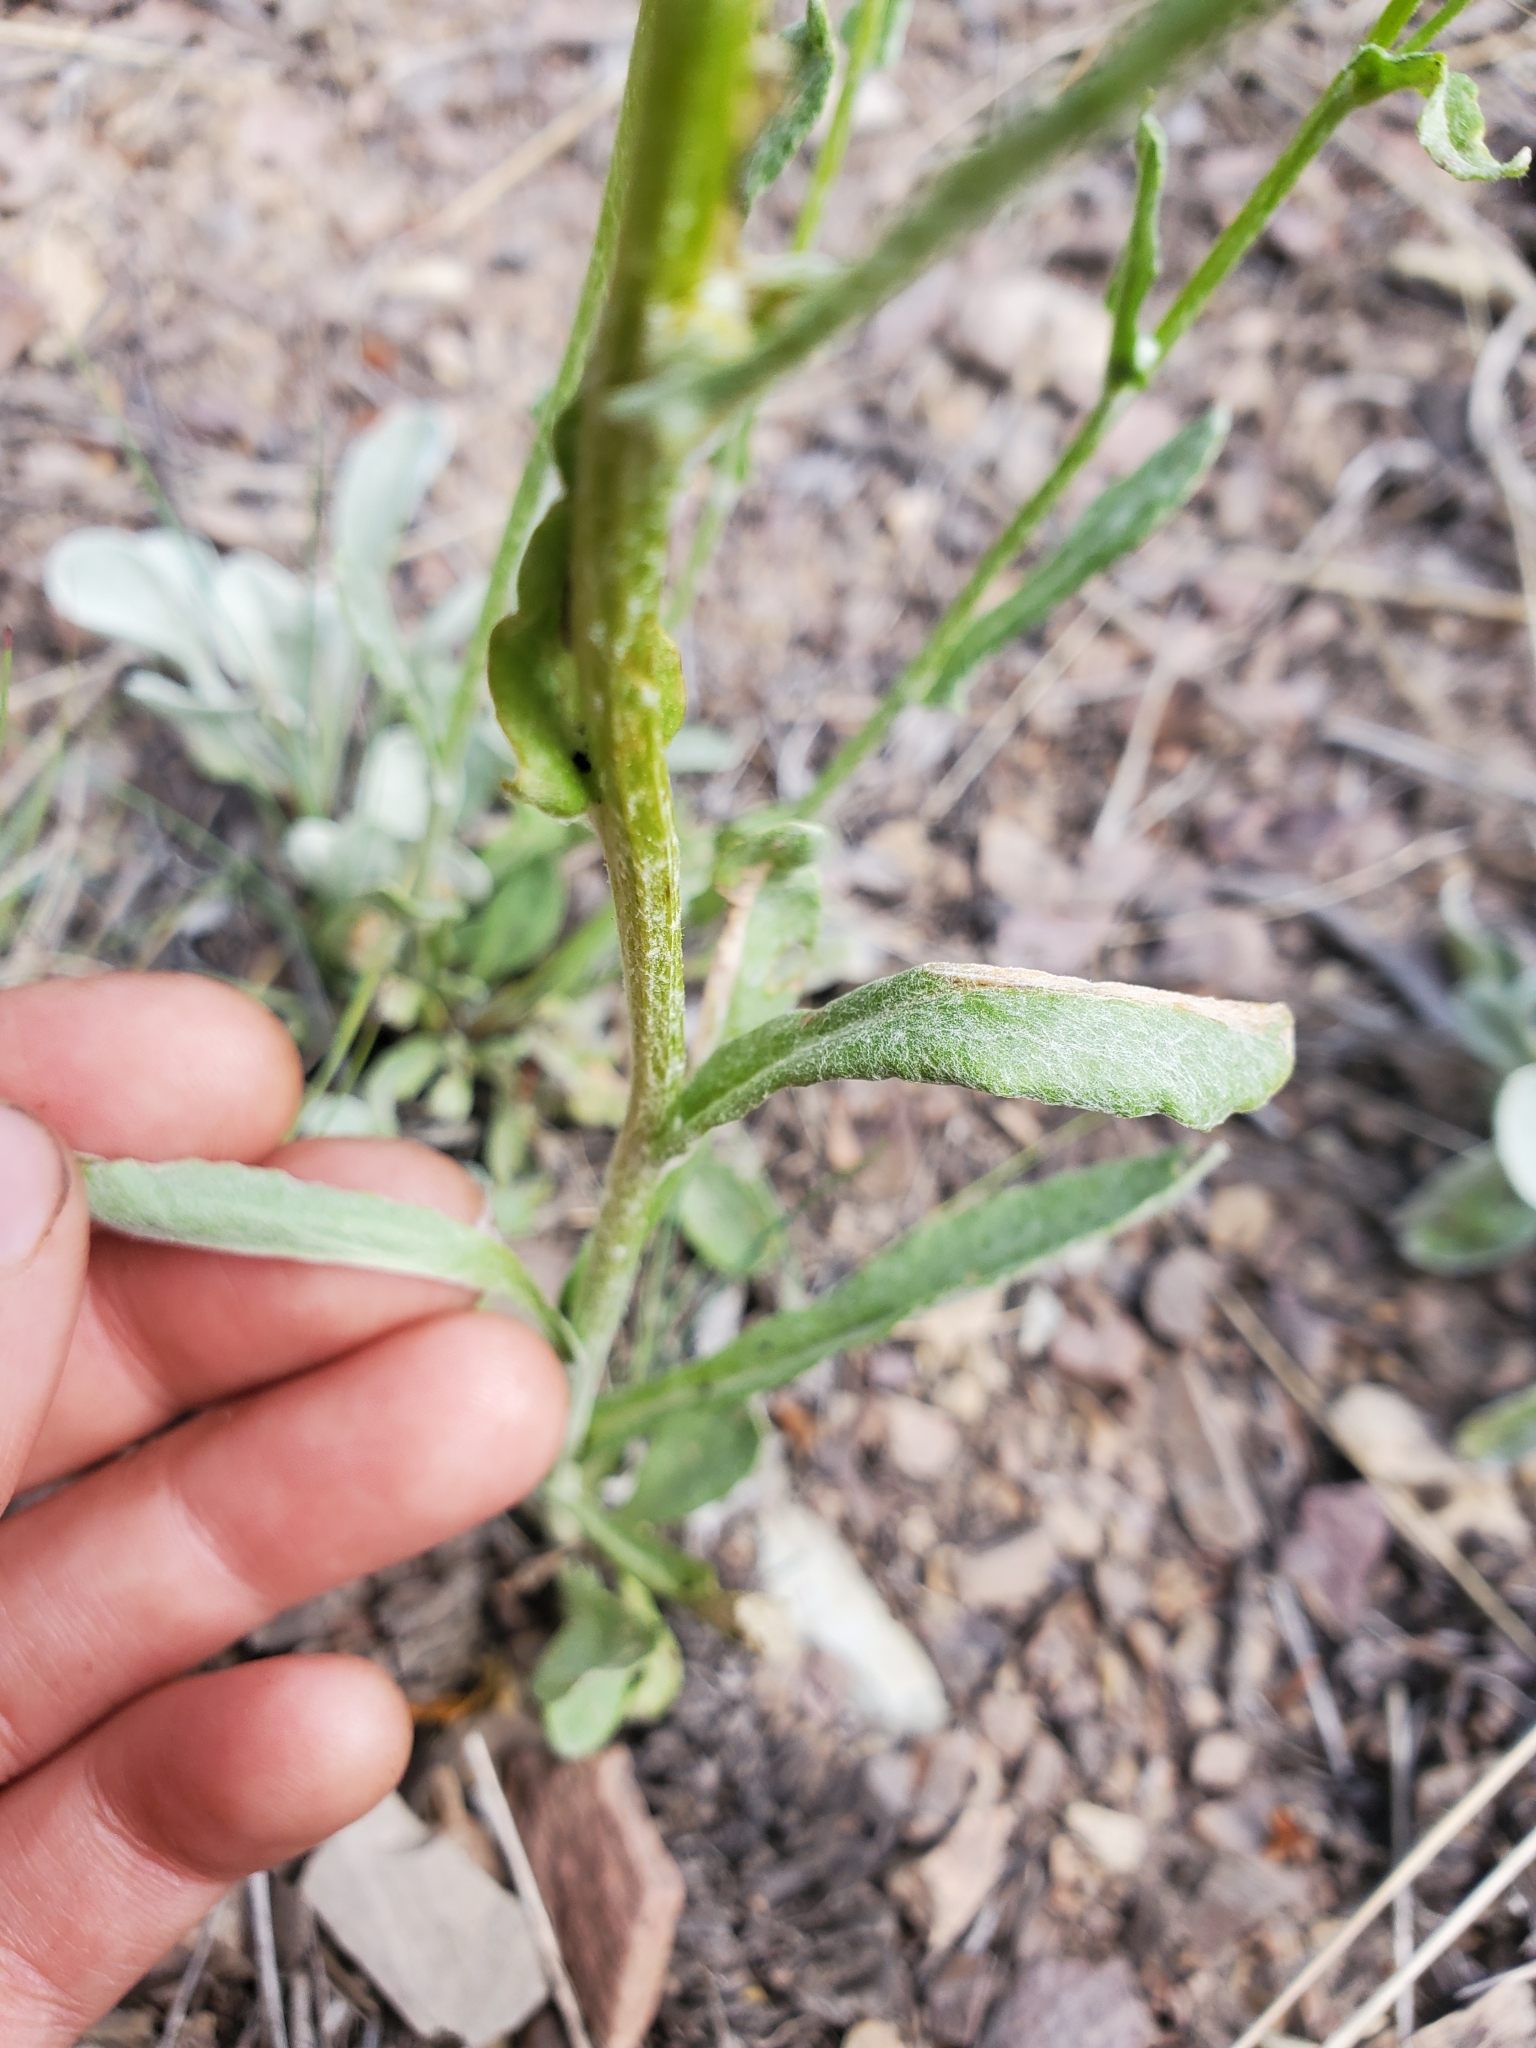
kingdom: Plantae
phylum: Tracheophyta
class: Magnoliopsida
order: Asterales
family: Asteraceae
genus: Packera
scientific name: Packera cana
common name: Woolly groundsel
